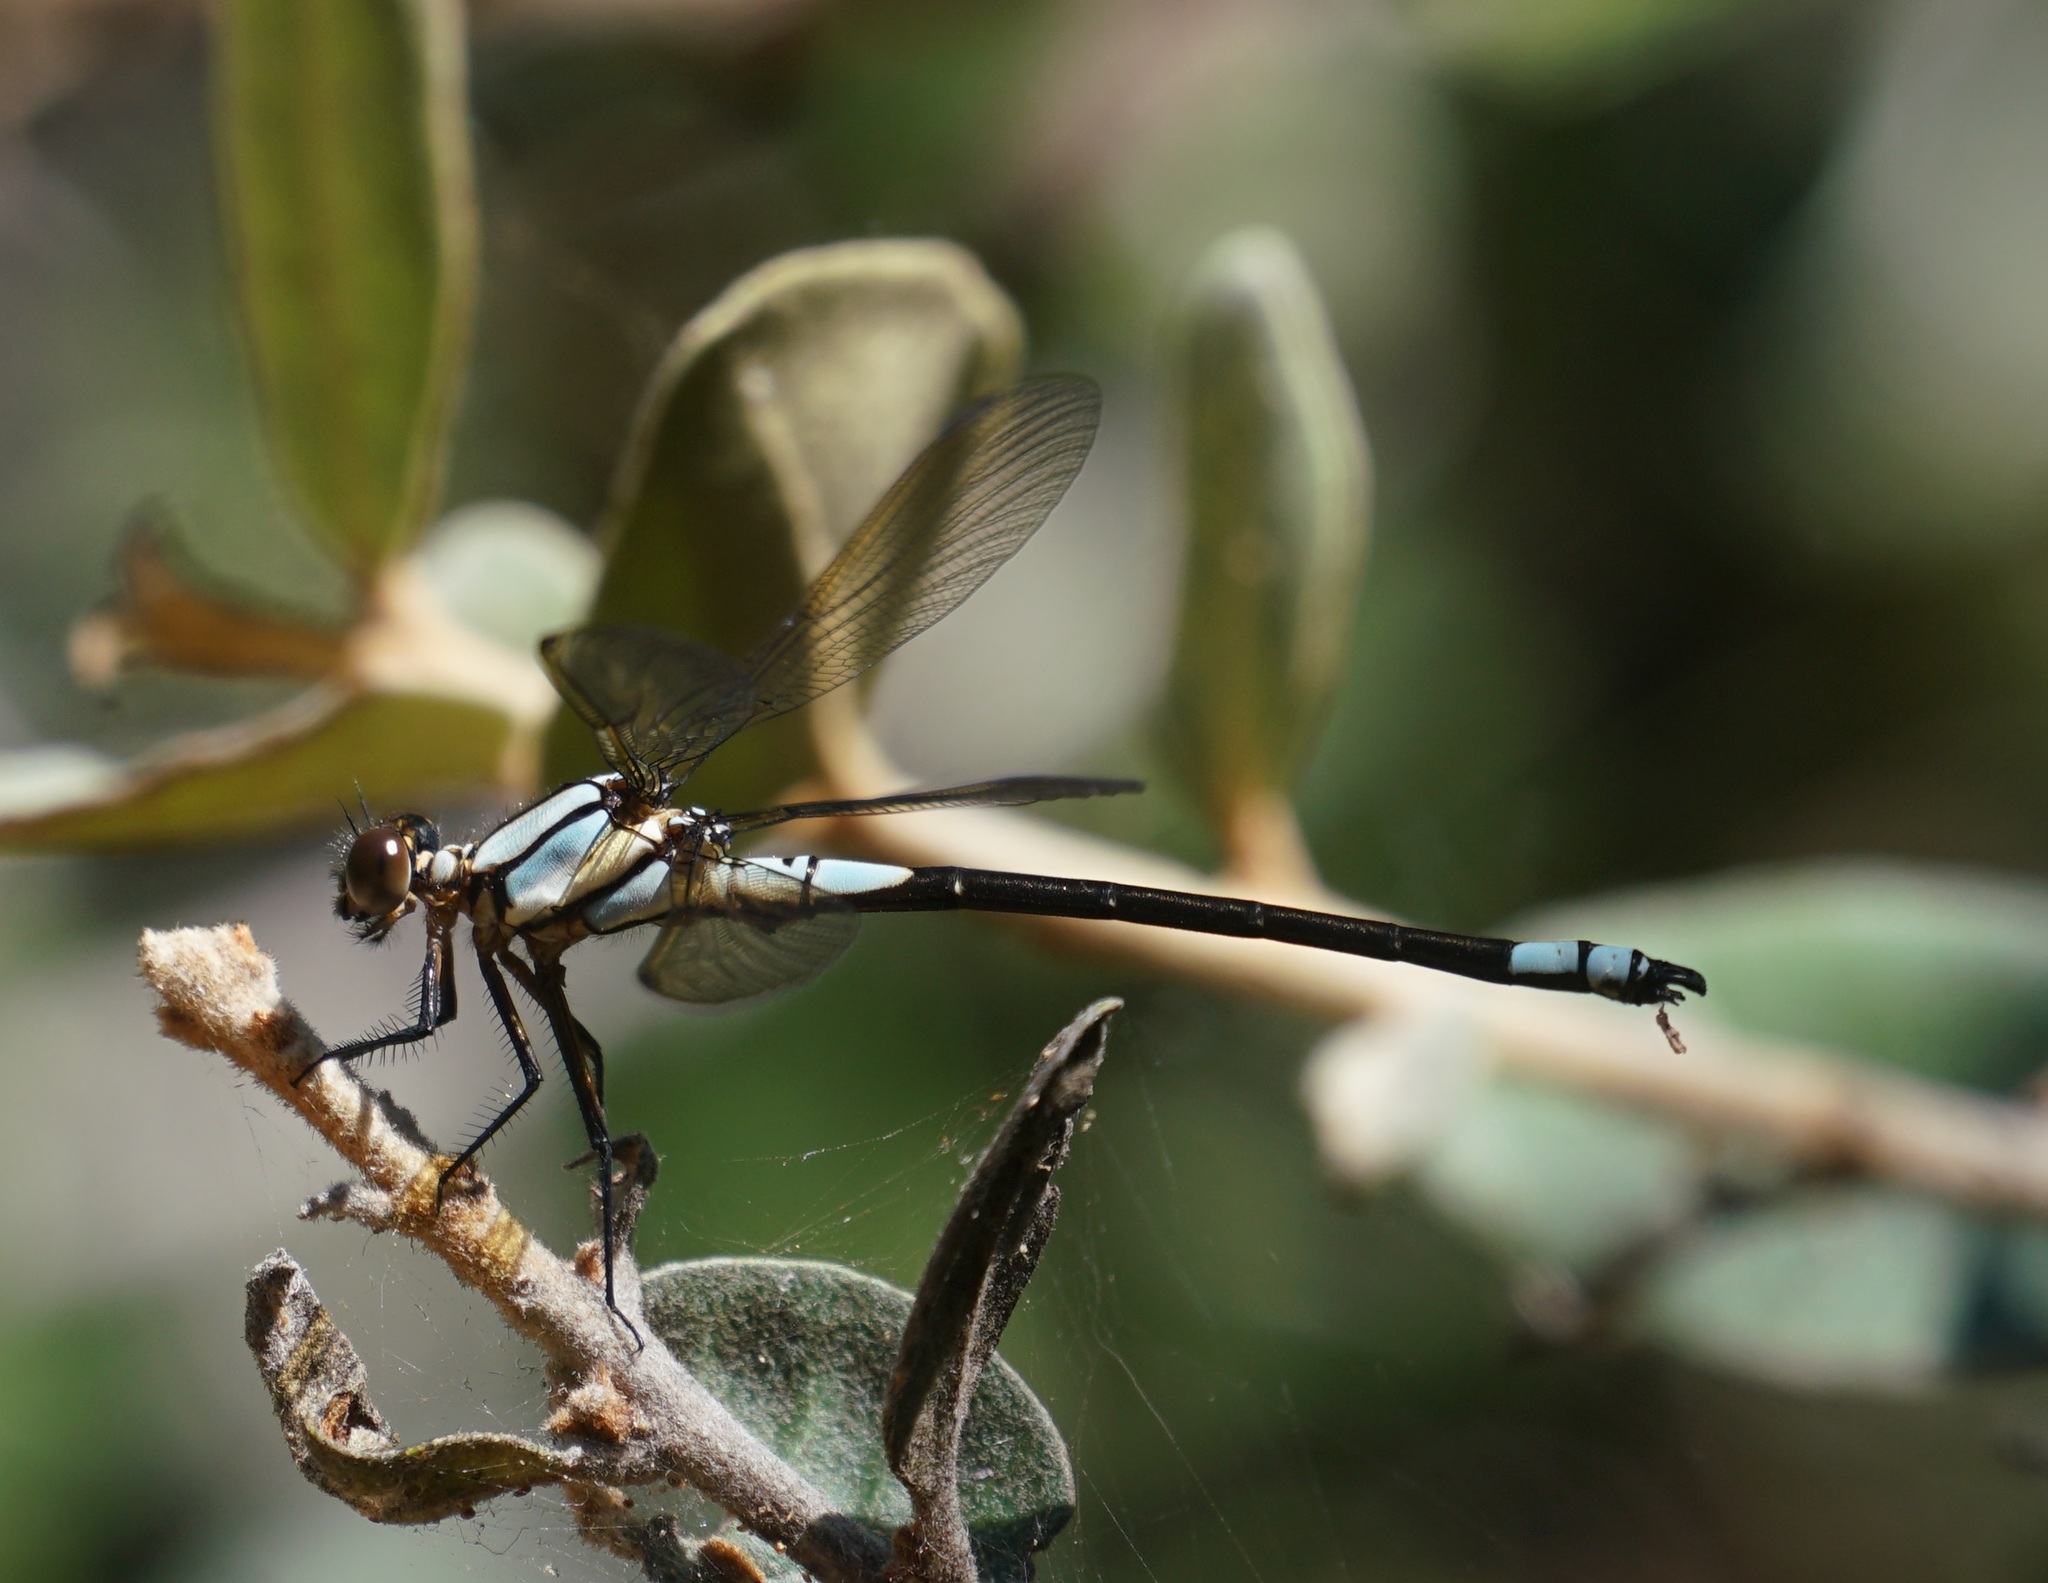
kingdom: Animalia
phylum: Arthropoda
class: Insecta
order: Odonata
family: Lestoideidae
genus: Diphlebia
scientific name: Diphlebia euphoeoides
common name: Tropical rockmaster
